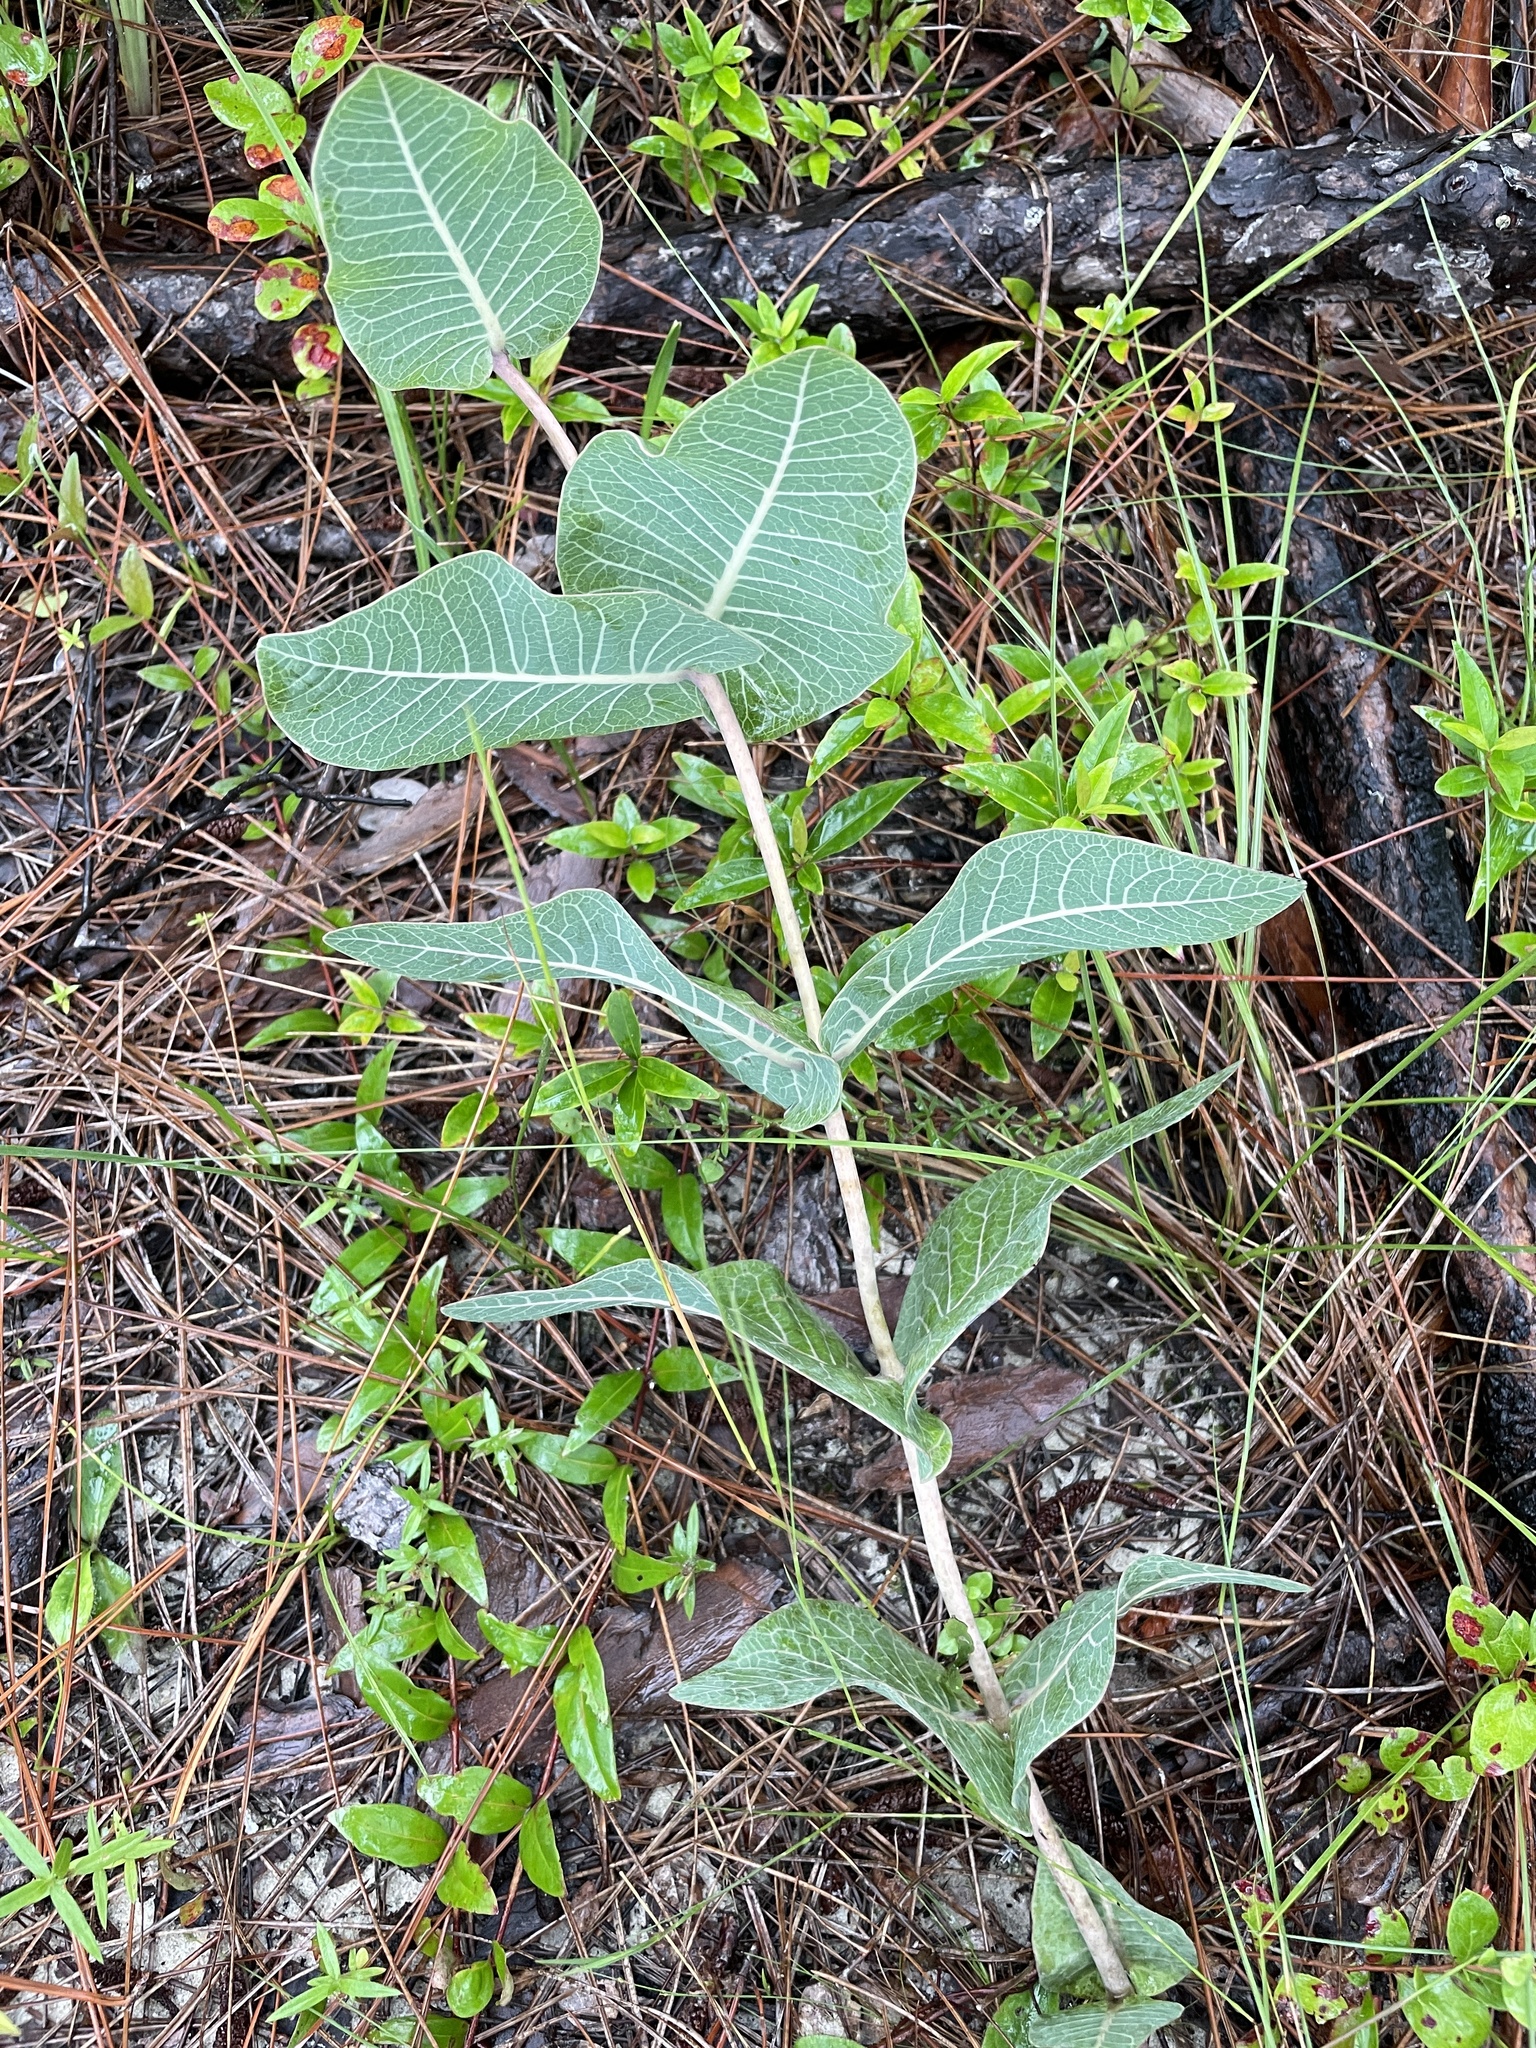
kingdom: Plantae
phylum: Tracheophyta
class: Magnoliopsida
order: Gentianales
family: Apocynaceae
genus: Asclepias
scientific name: Asclepias humistrata
